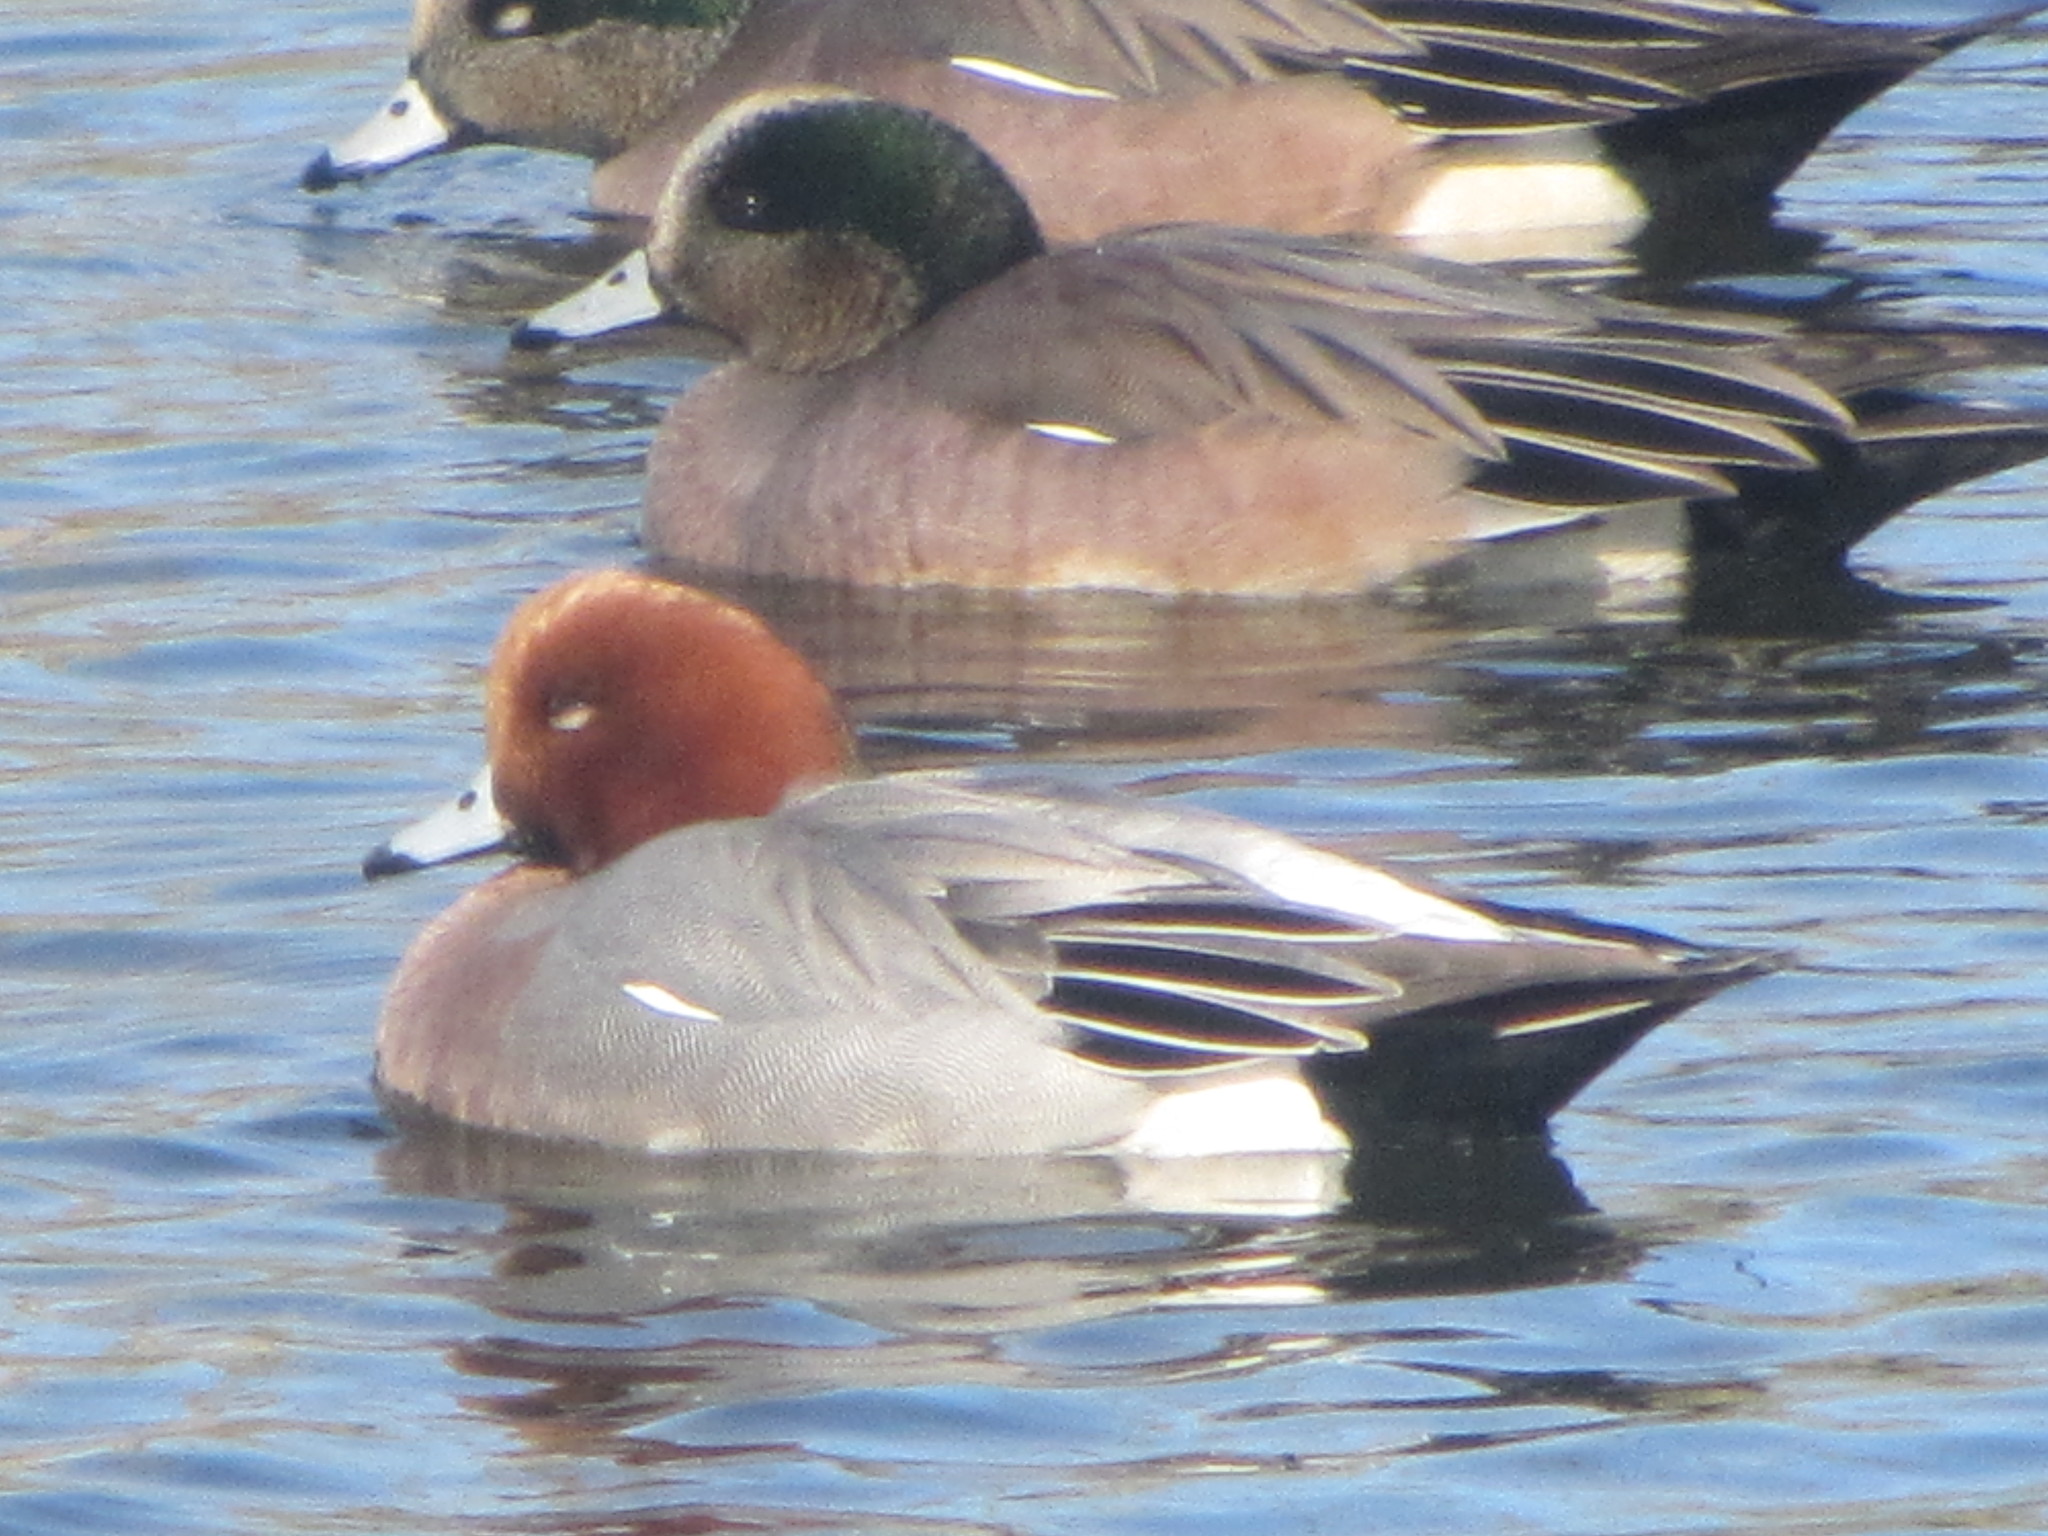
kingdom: Animalia
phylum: Chordata
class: Aves
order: Anseriformes
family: Anatidae
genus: Mareca
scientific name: Mareca penelope
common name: Eurasian wigeon
